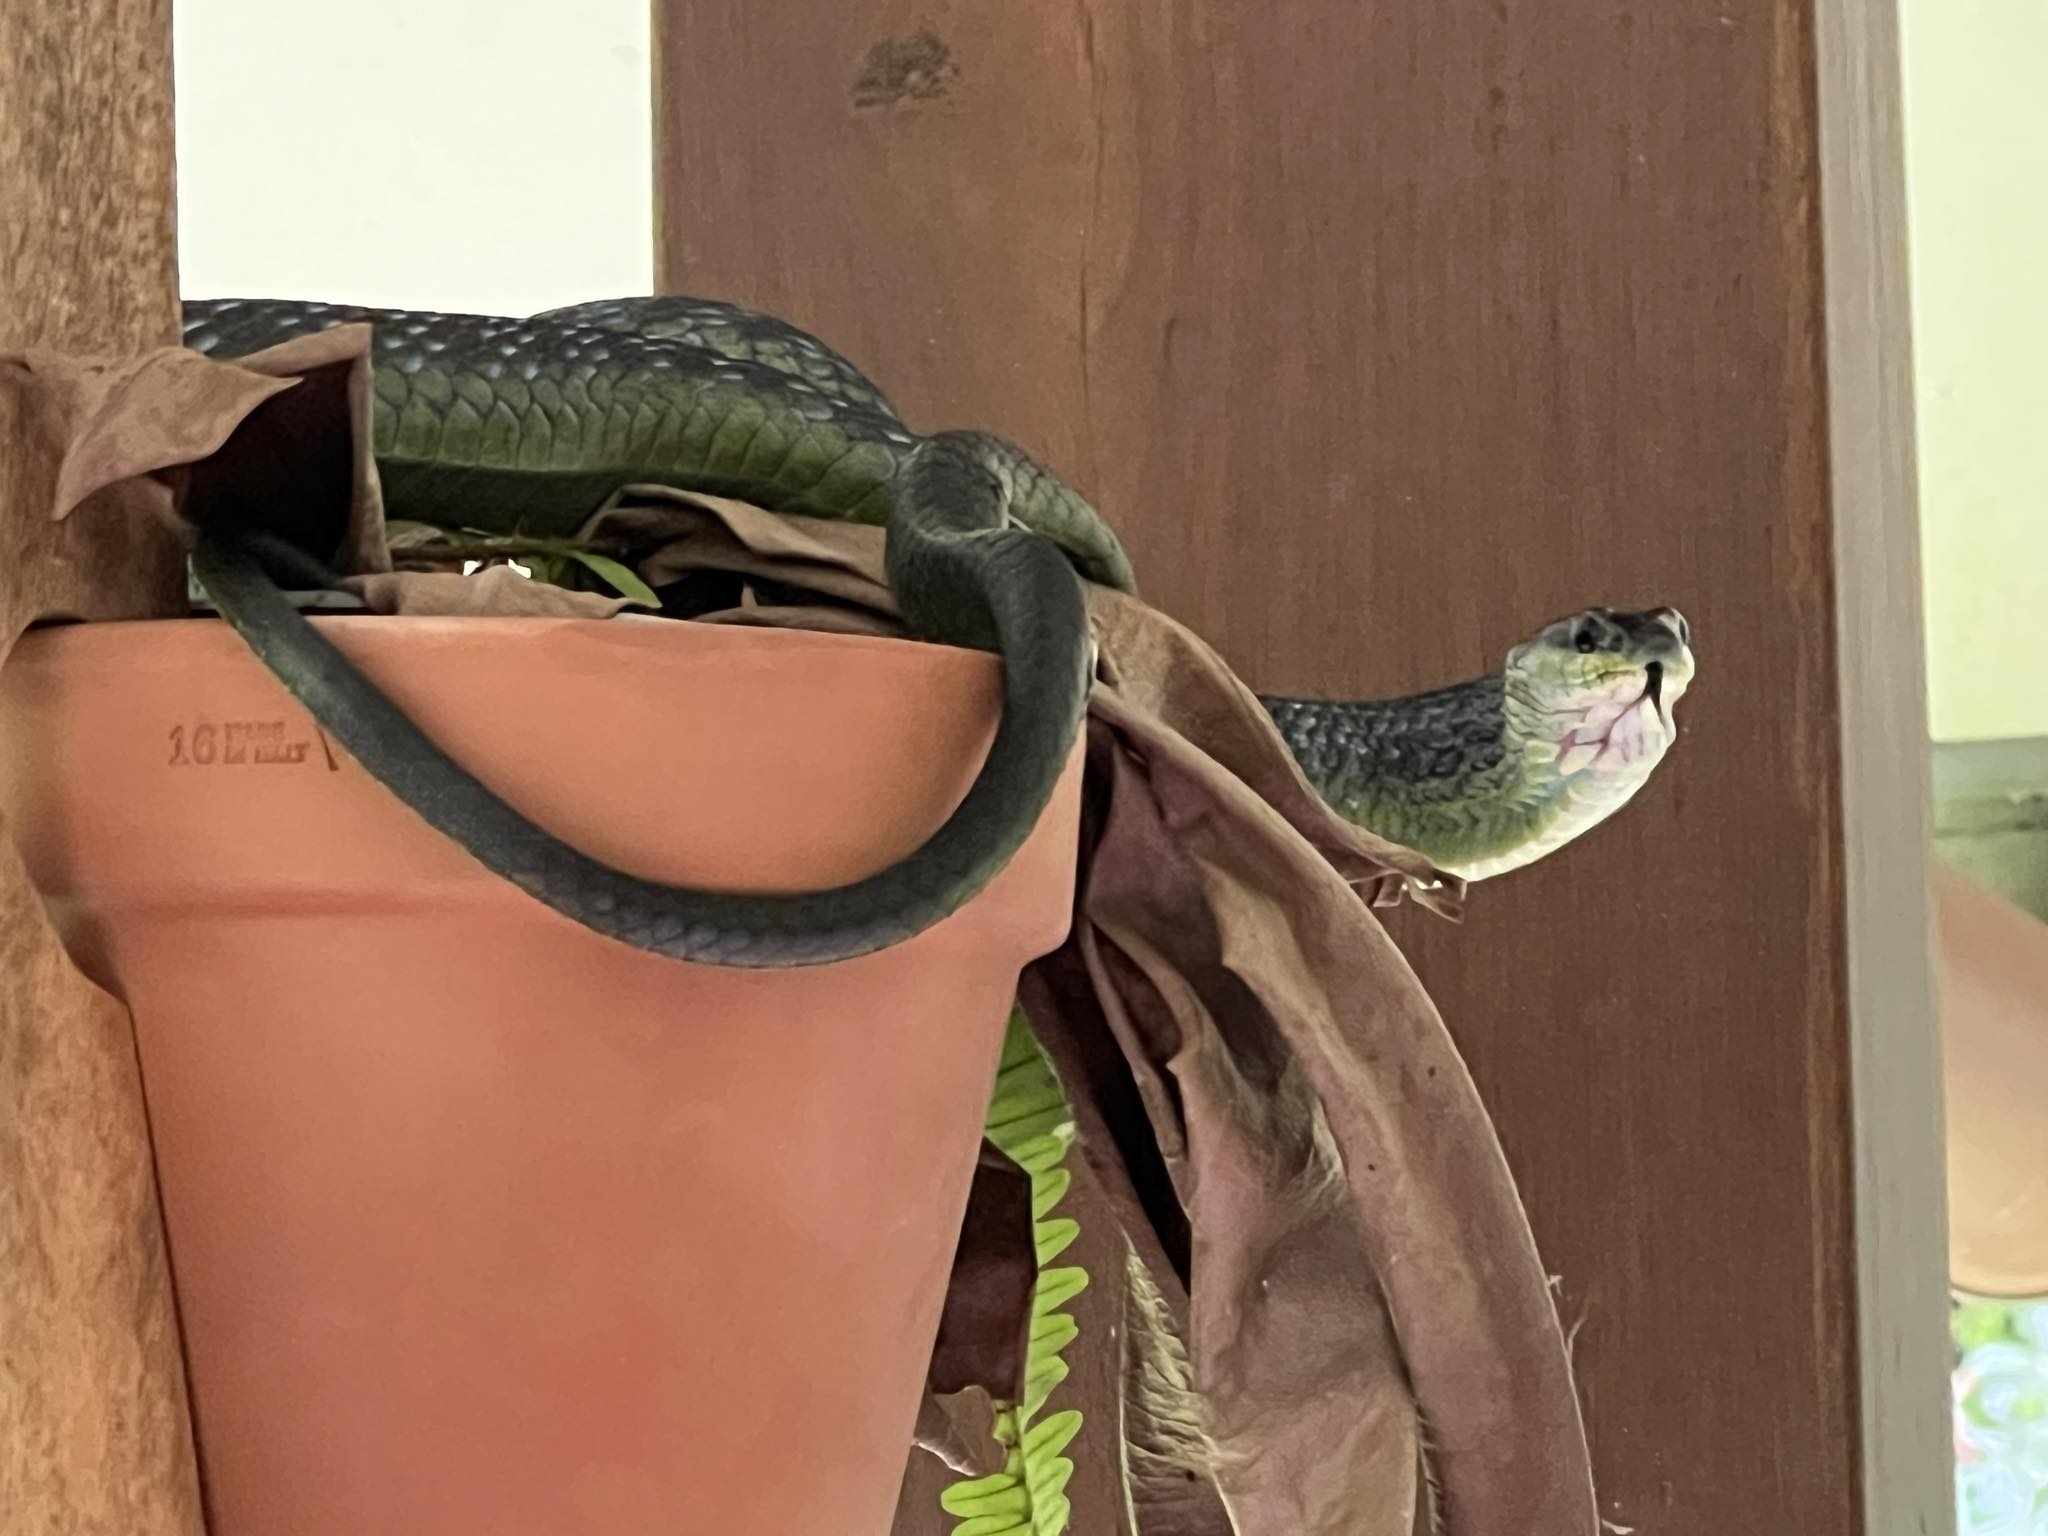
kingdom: Animalia
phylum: Chordata
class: Squamata
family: Colubridae
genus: Dendrelaphis
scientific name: Dendrelaphis punctulatus
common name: Common tree snake
